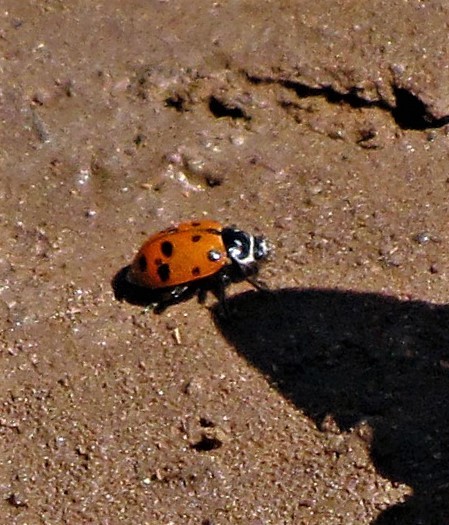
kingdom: Animalia
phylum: Arthropoda
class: Insecta
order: Coleoptera
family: Coccinellidae
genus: Hippodamia
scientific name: Hippodamia convergens
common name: Convergent lady beetle
